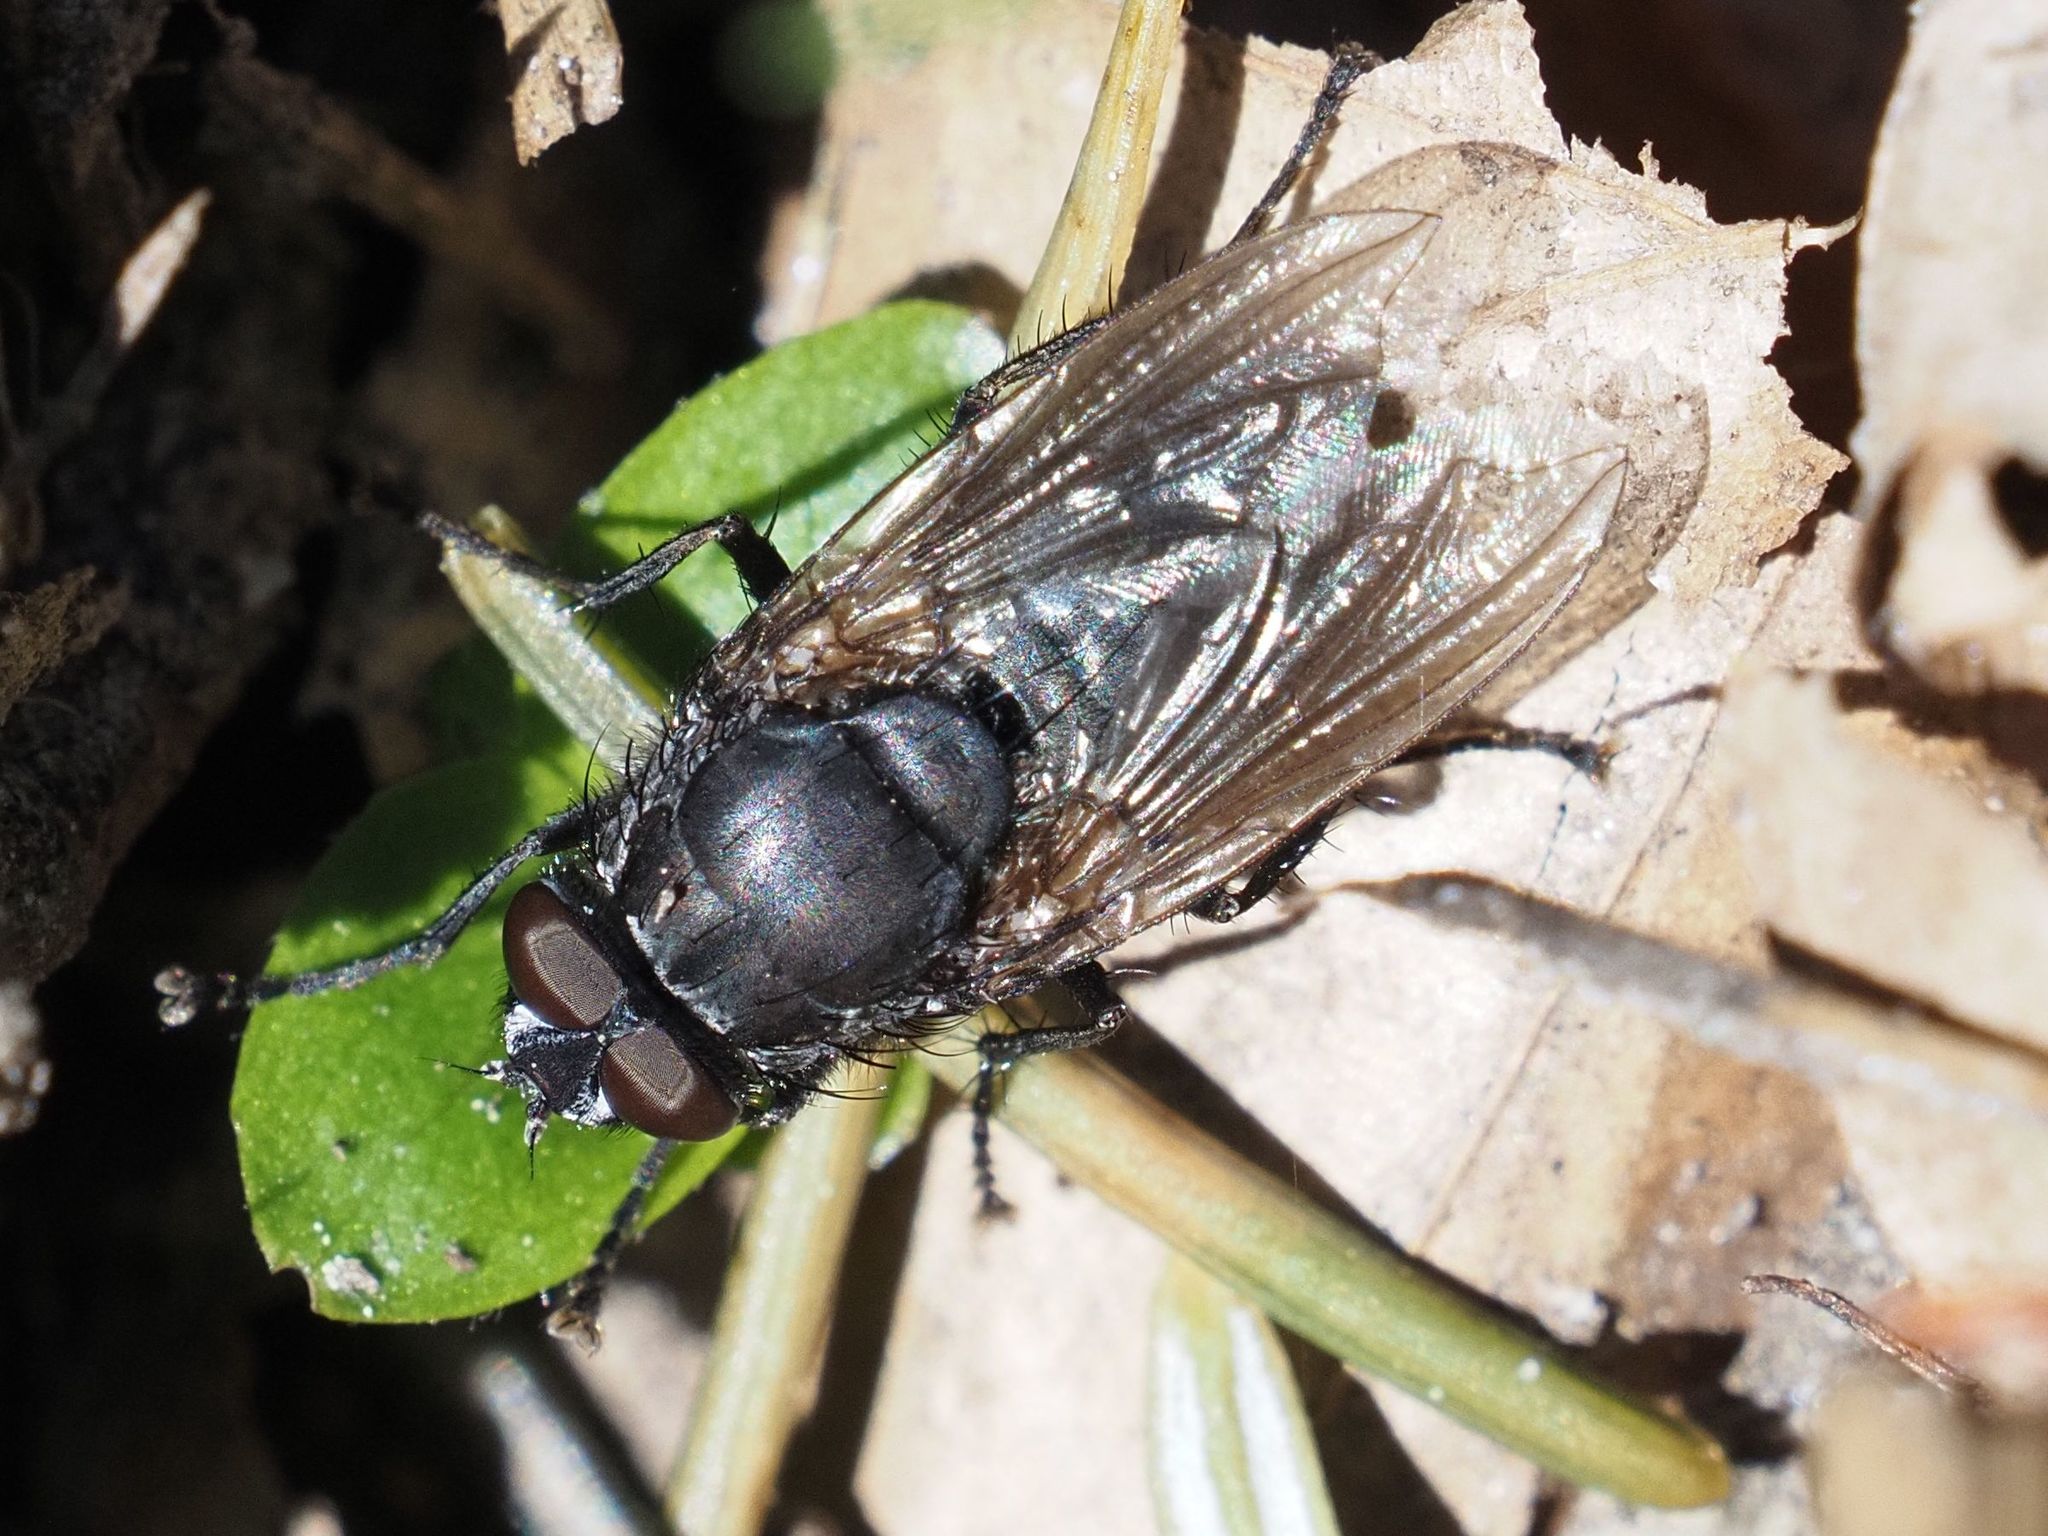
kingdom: Animalia
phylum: Arthropoda
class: Insecta
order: Diptera
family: Polleniidae
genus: Pollenia
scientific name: Pollenia vagabunda
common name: Vagabund cluster fly
